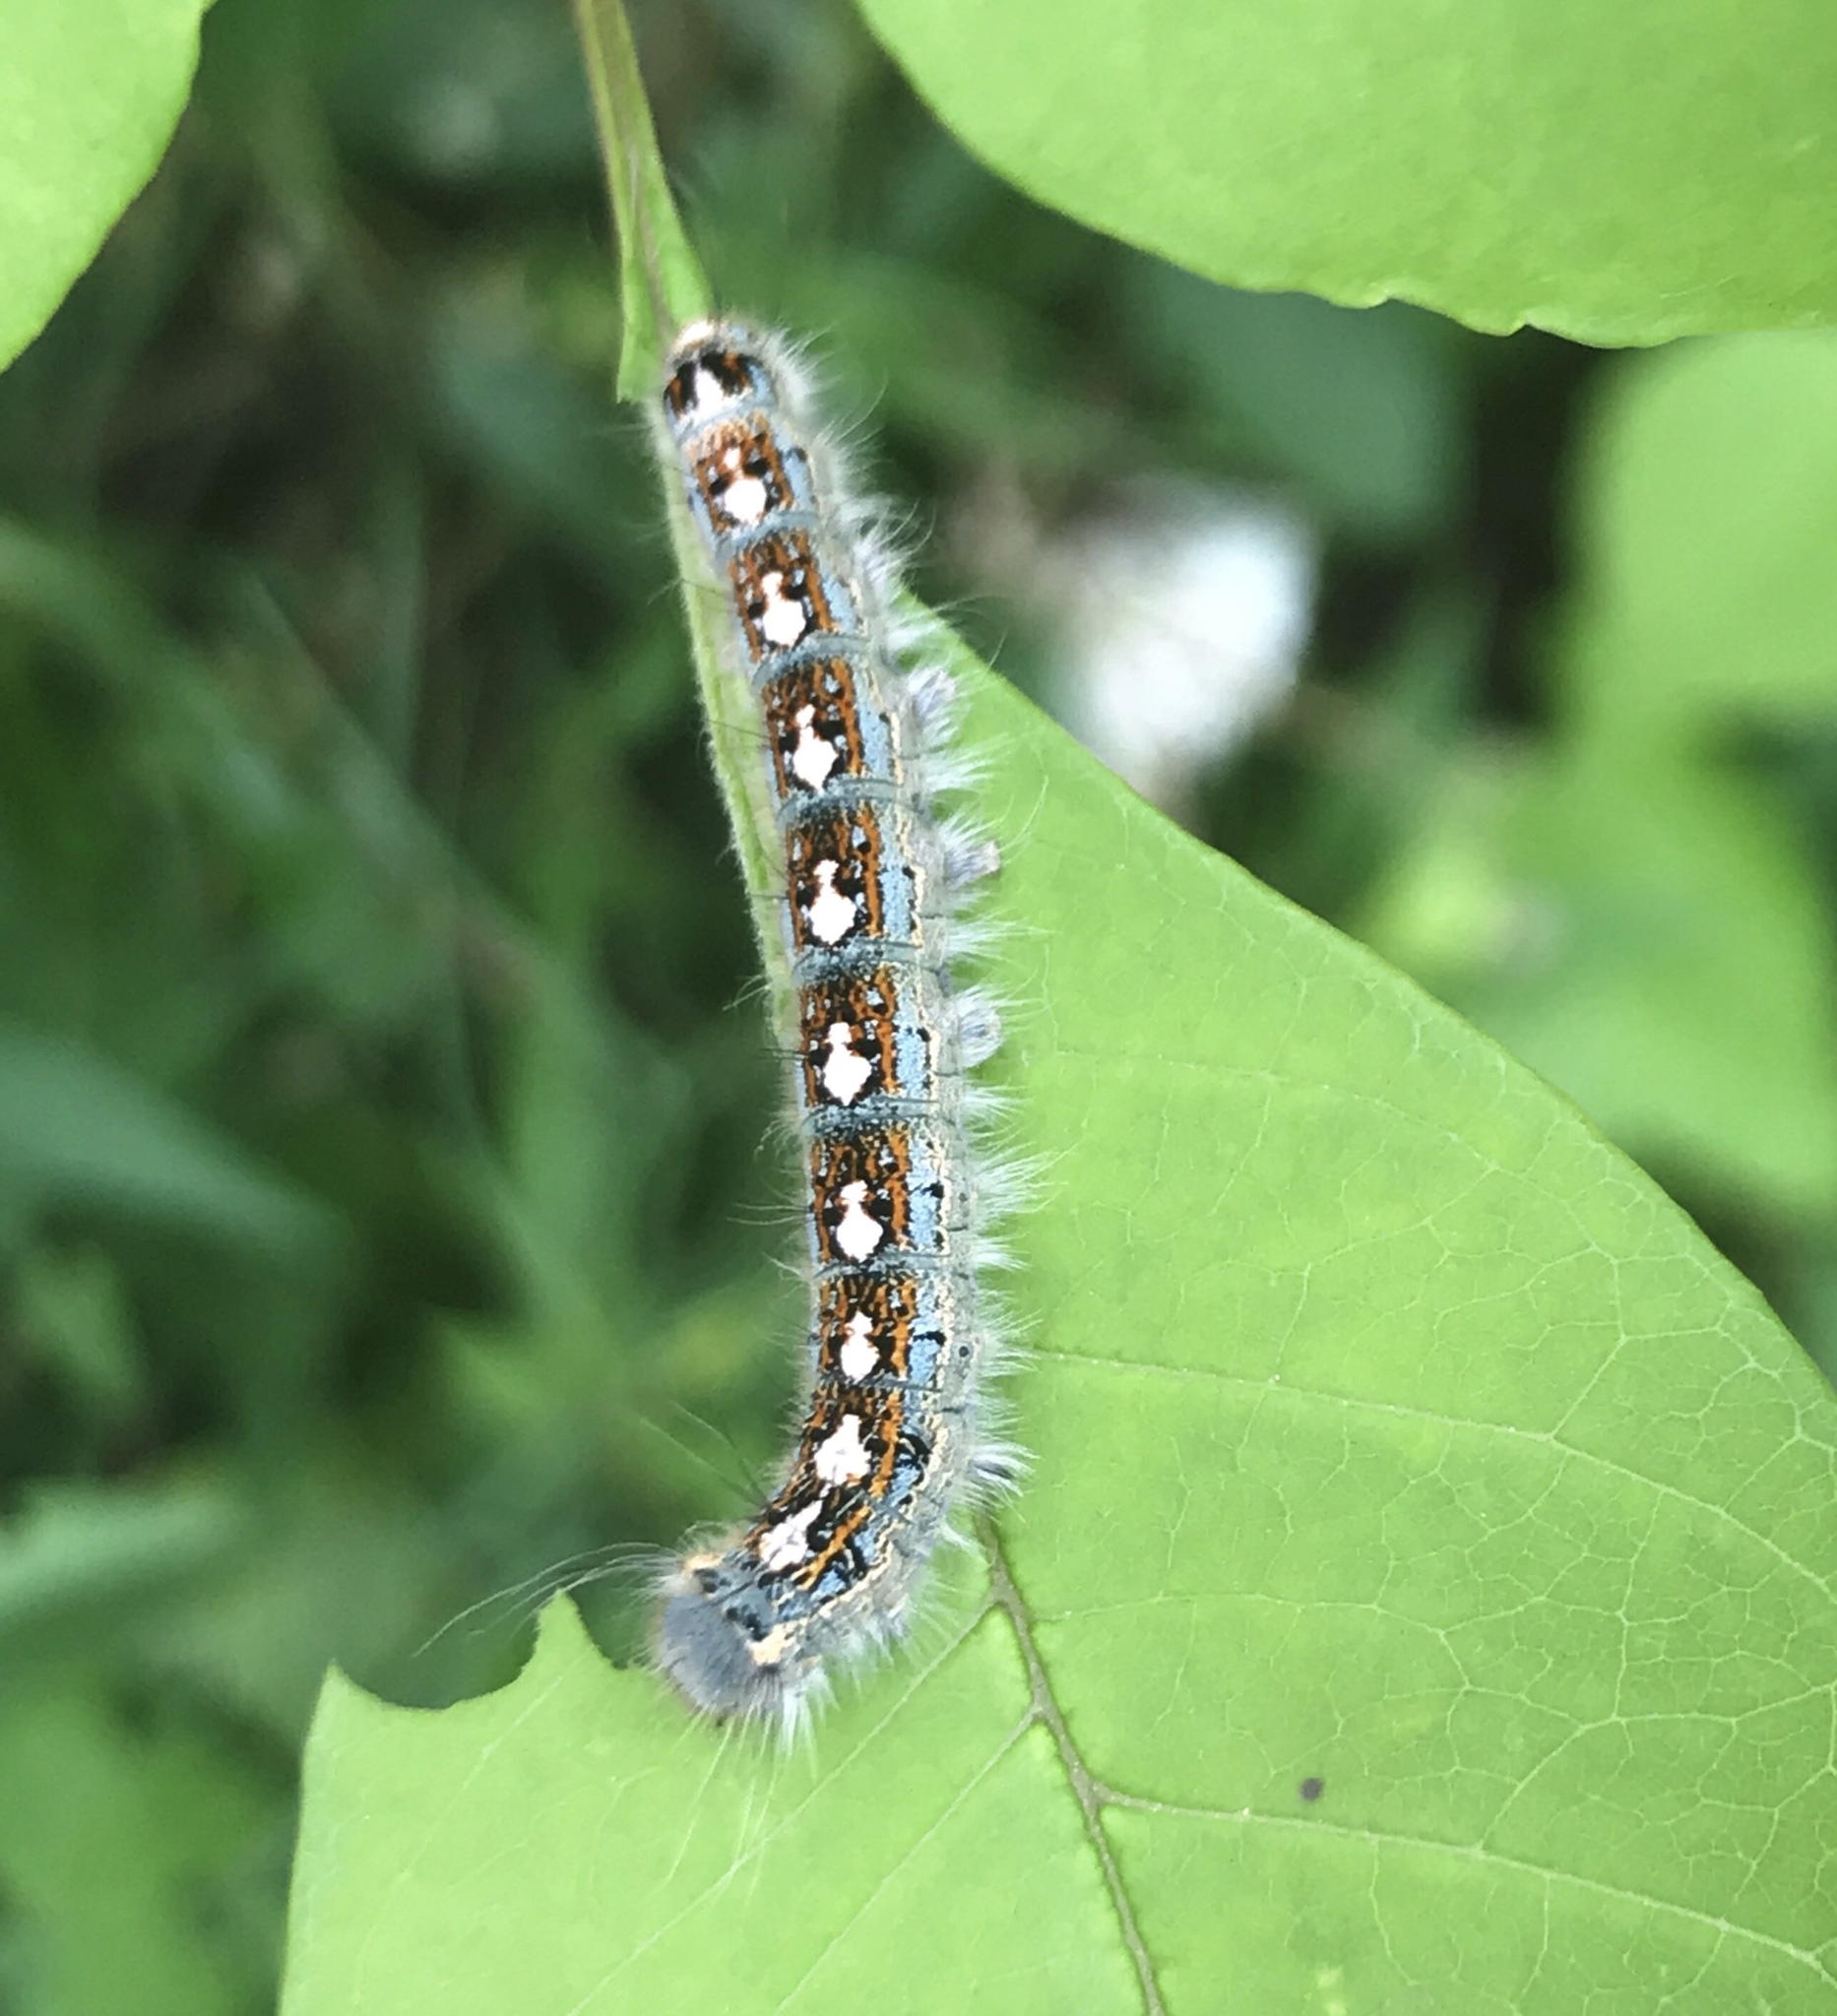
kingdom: Animalia
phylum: Arthropoda
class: Insecta
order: Lepidoptera
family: Lasiocampidae
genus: Malacosoma
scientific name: Malacosoma disstria
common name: Forest tent caterpillar
